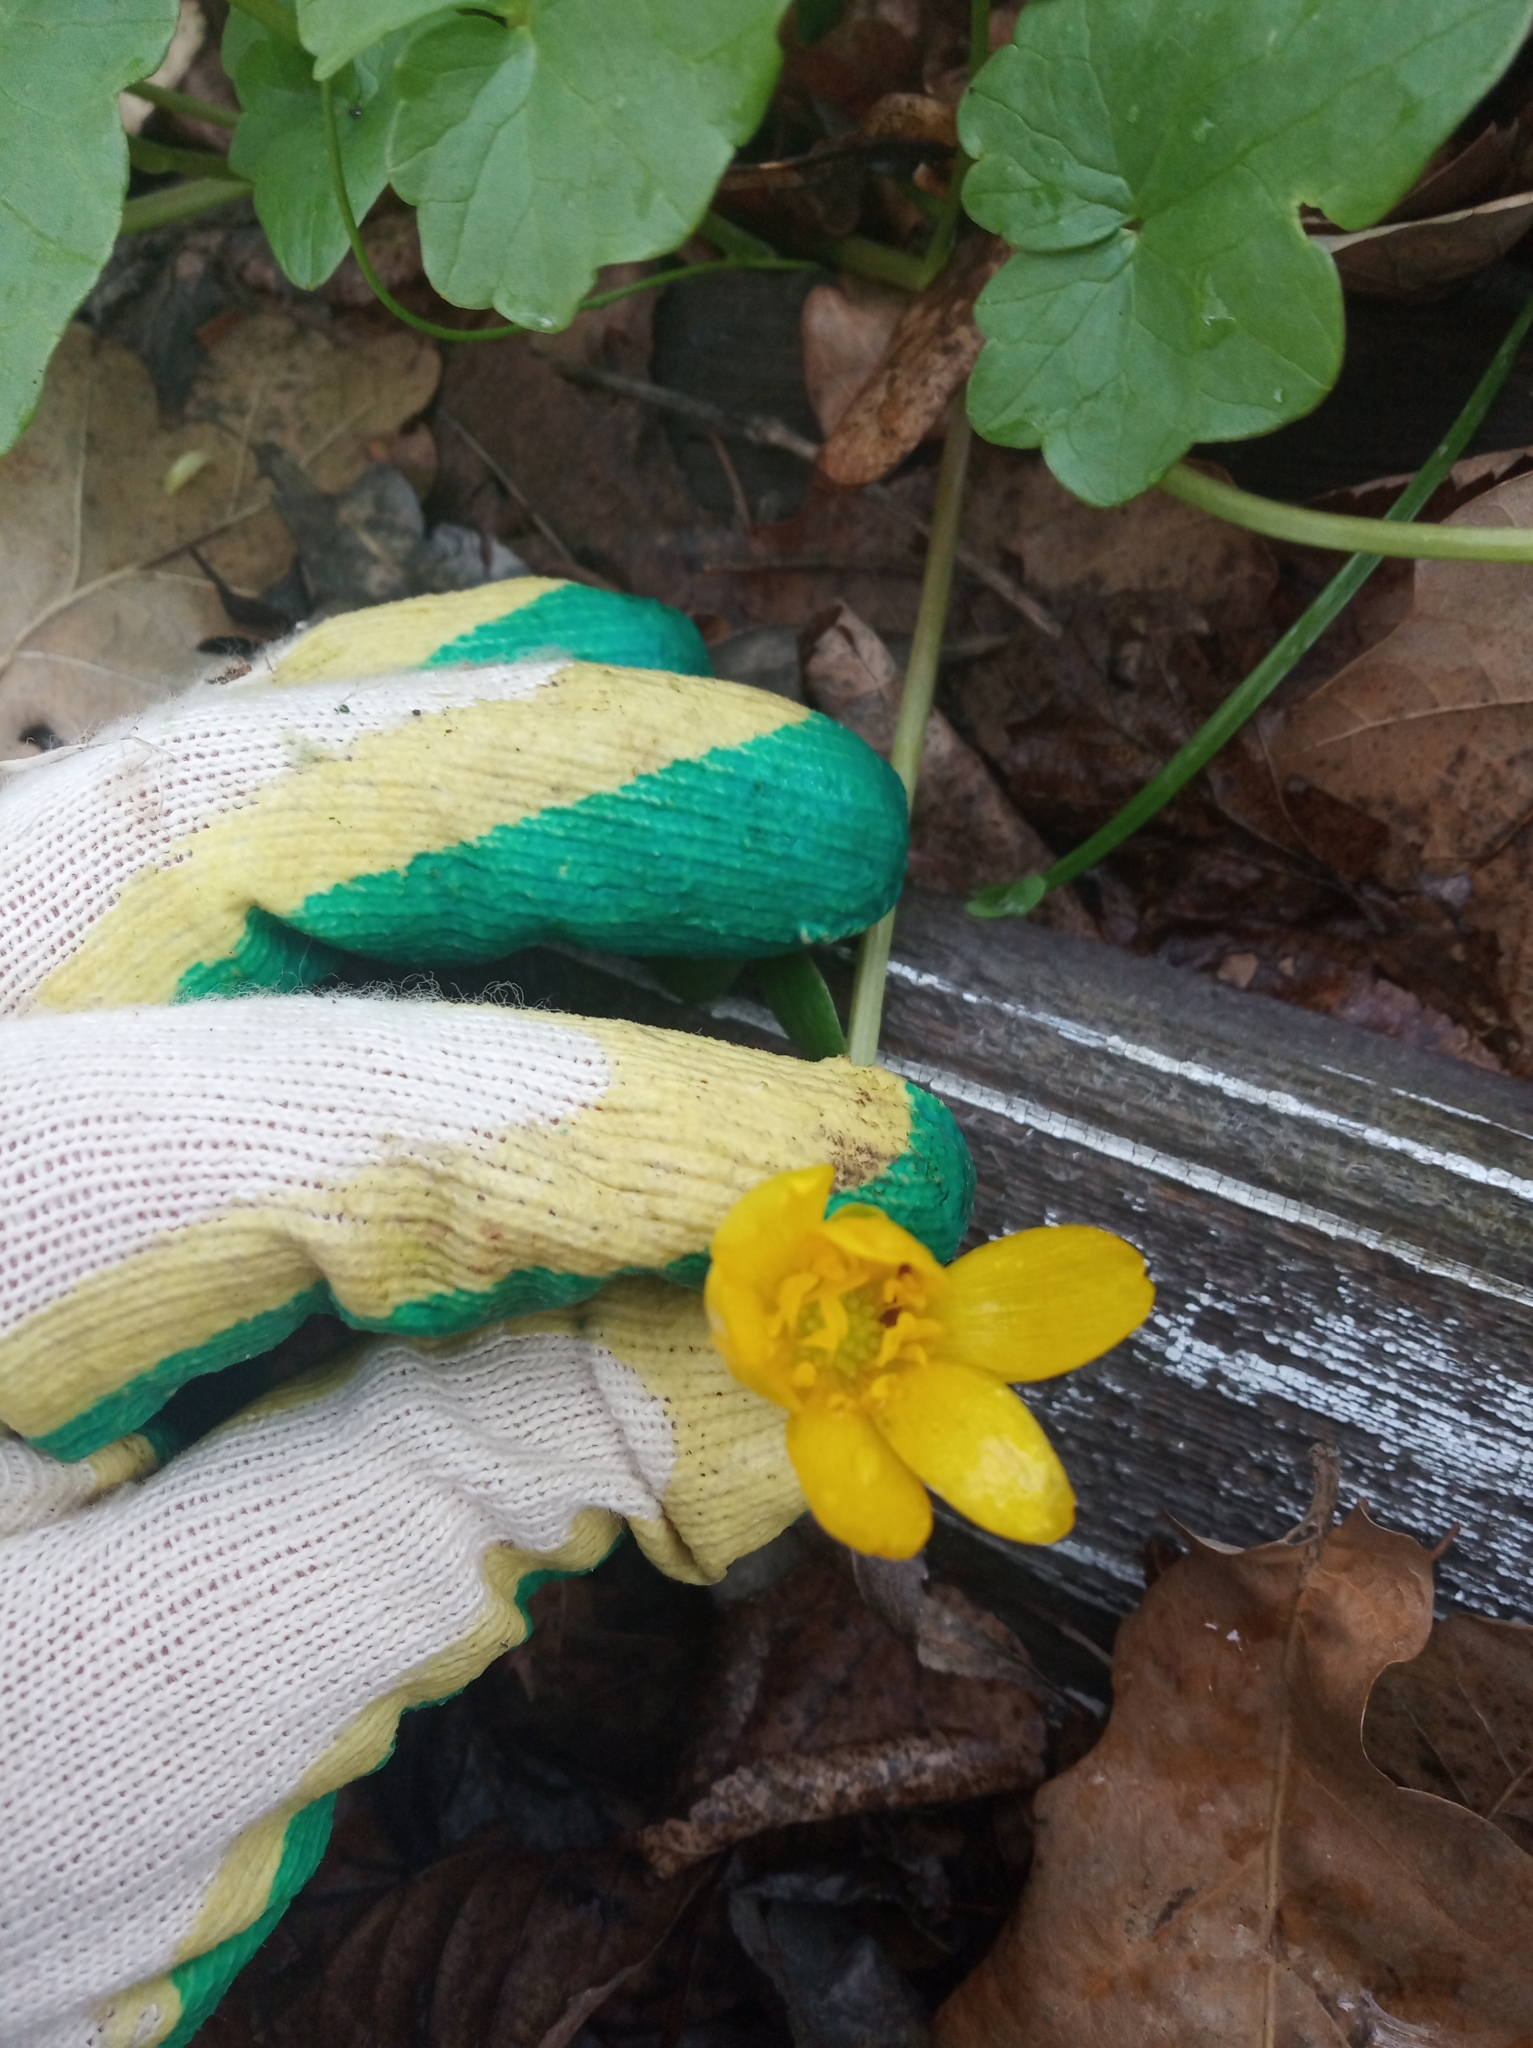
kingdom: Plantae
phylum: Tracheophyta
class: Magnoliopsida
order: Ranunculales
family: Ranunculaceae
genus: Ficaria
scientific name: Ficaria verna
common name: Lesser celandine
